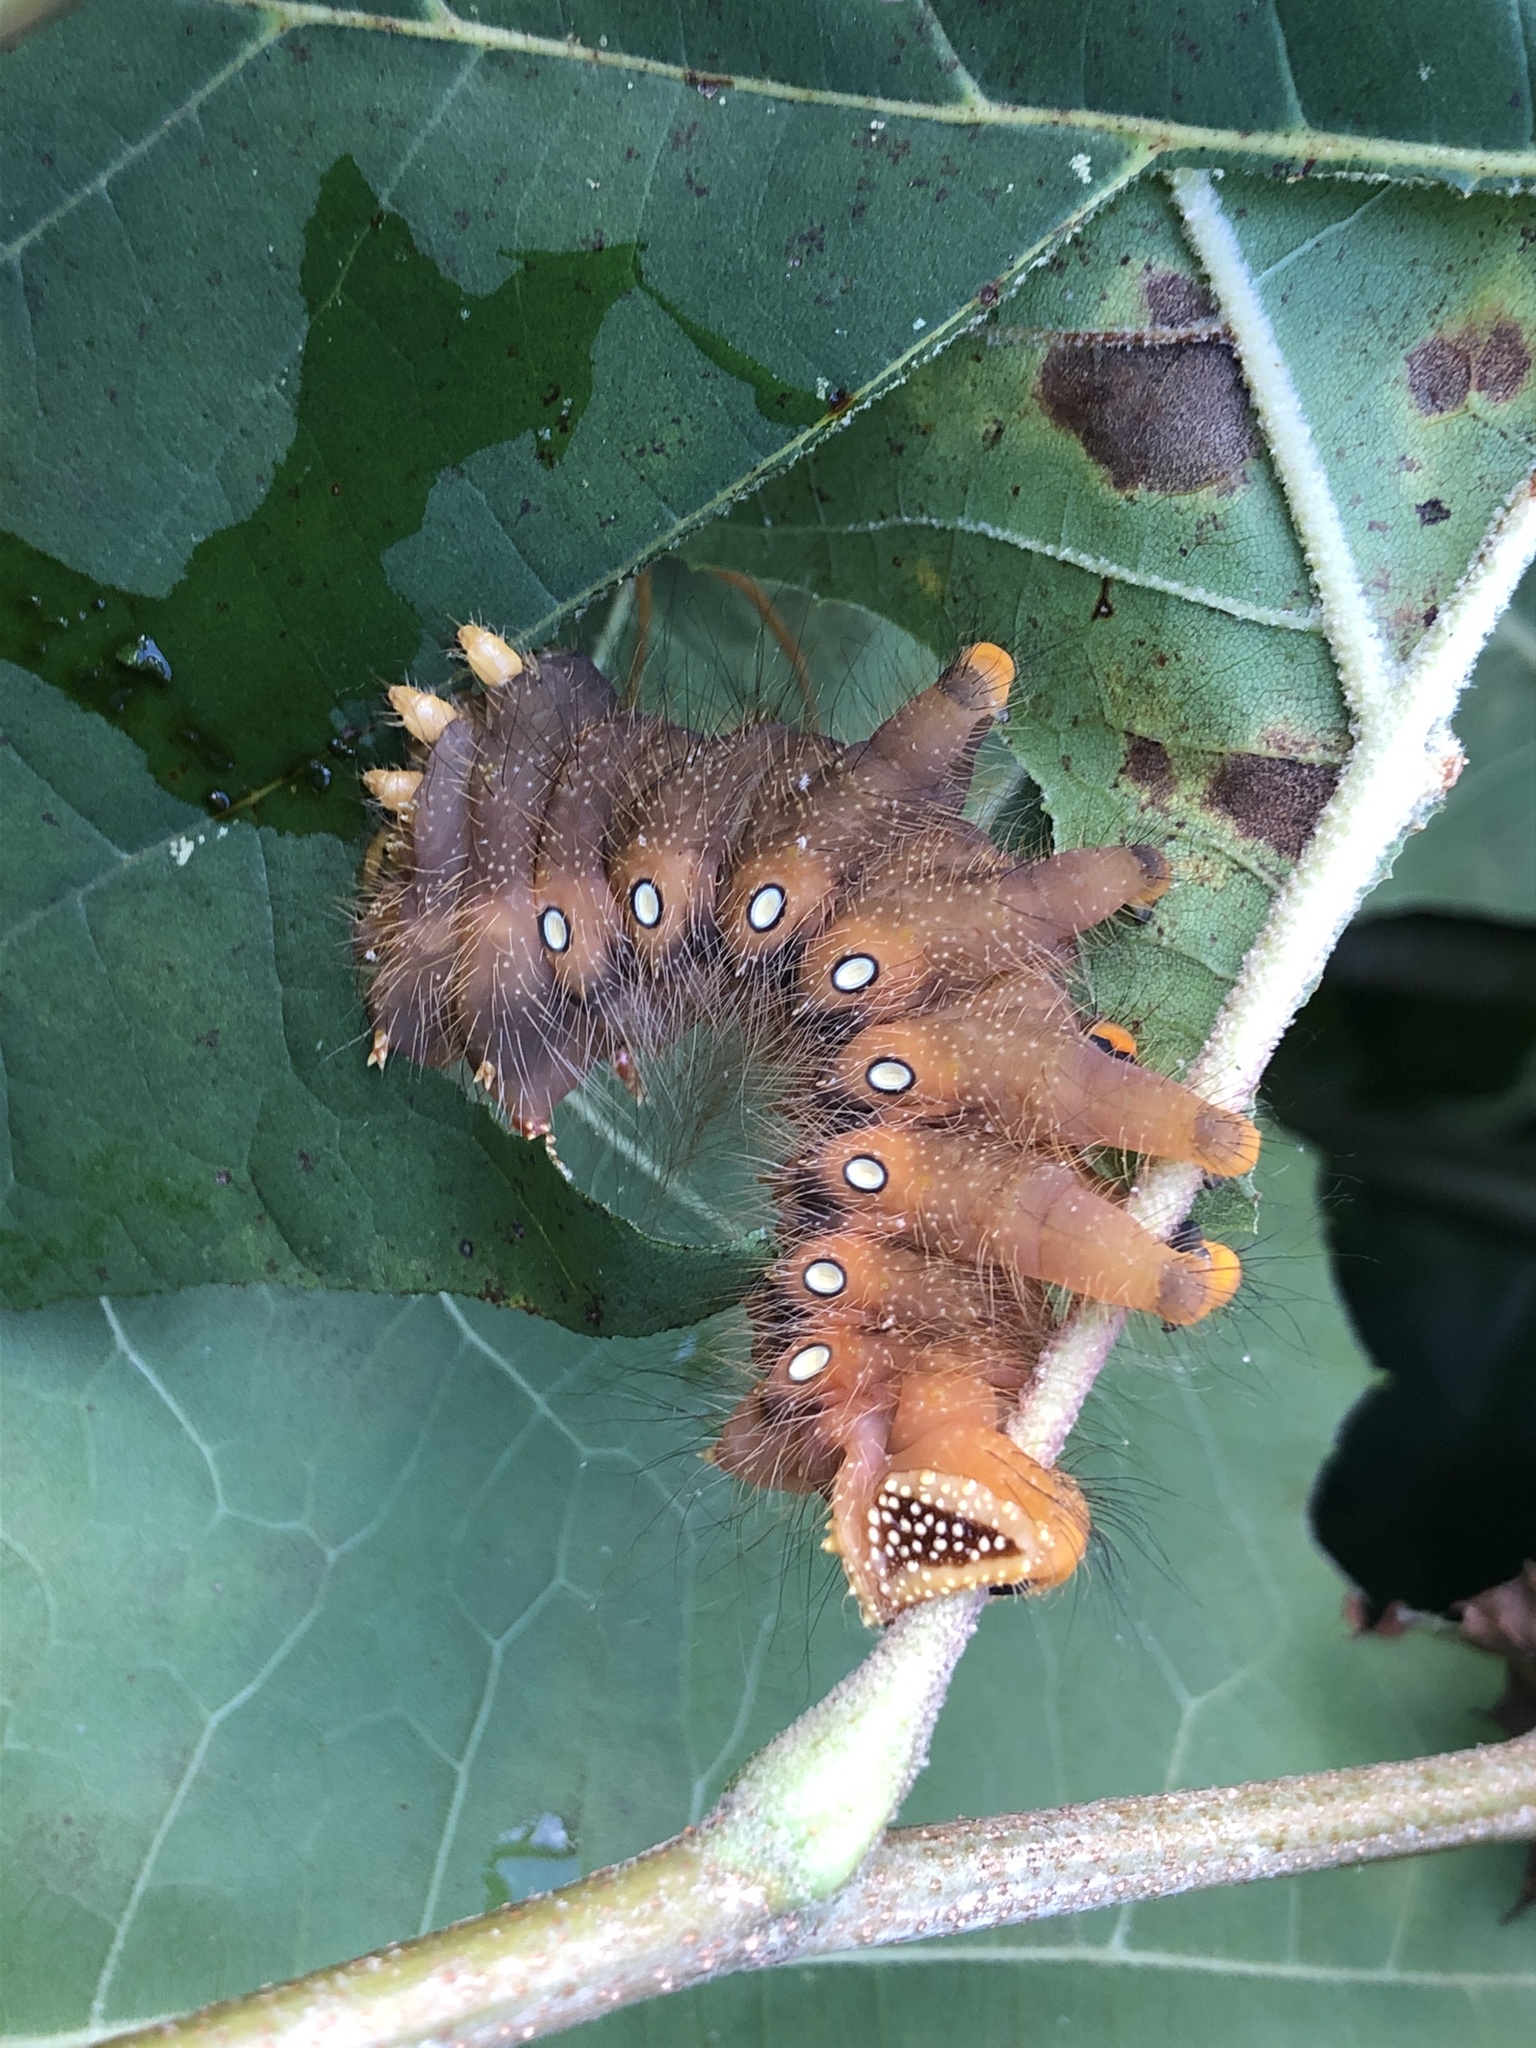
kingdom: Animalia
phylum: Arthropoda
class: Insecta
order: Lepidoptera
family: Saturniidae
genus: Eacles
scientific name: Eacles imperialis
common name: Imperial moth
